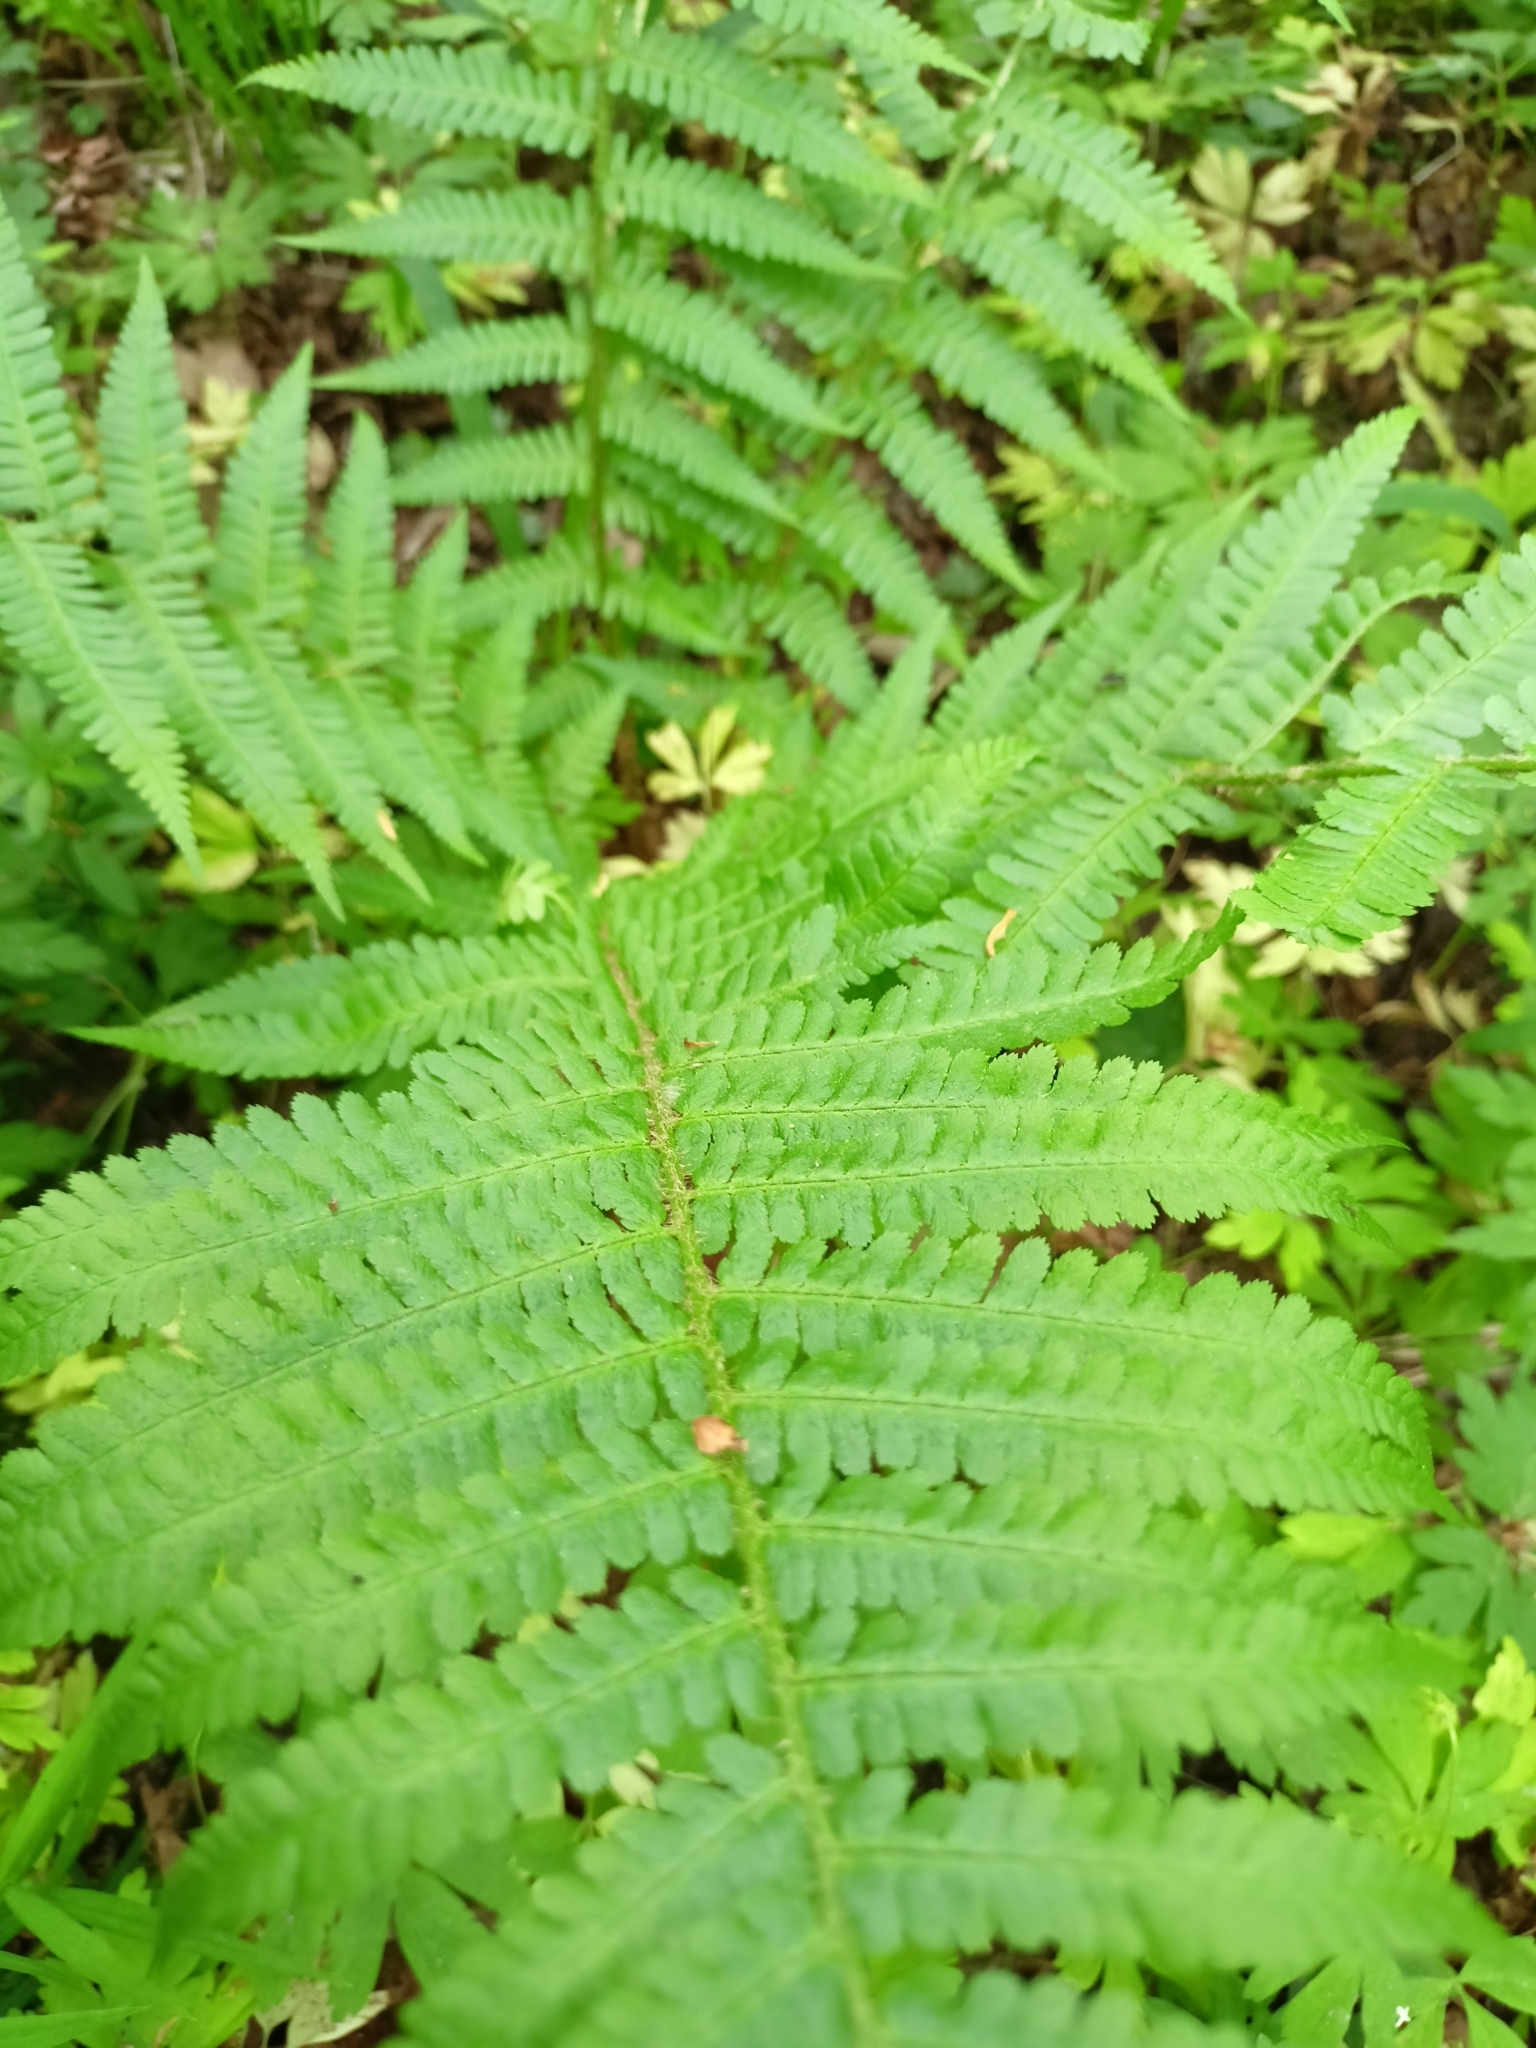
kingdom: Plantae
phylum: Tracheophyta
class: Polypodiopsida
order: Polypodiales
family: Dryopteridaceae
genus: Dryopteris
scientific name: Dryopteris filix-mas
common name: Male fern
